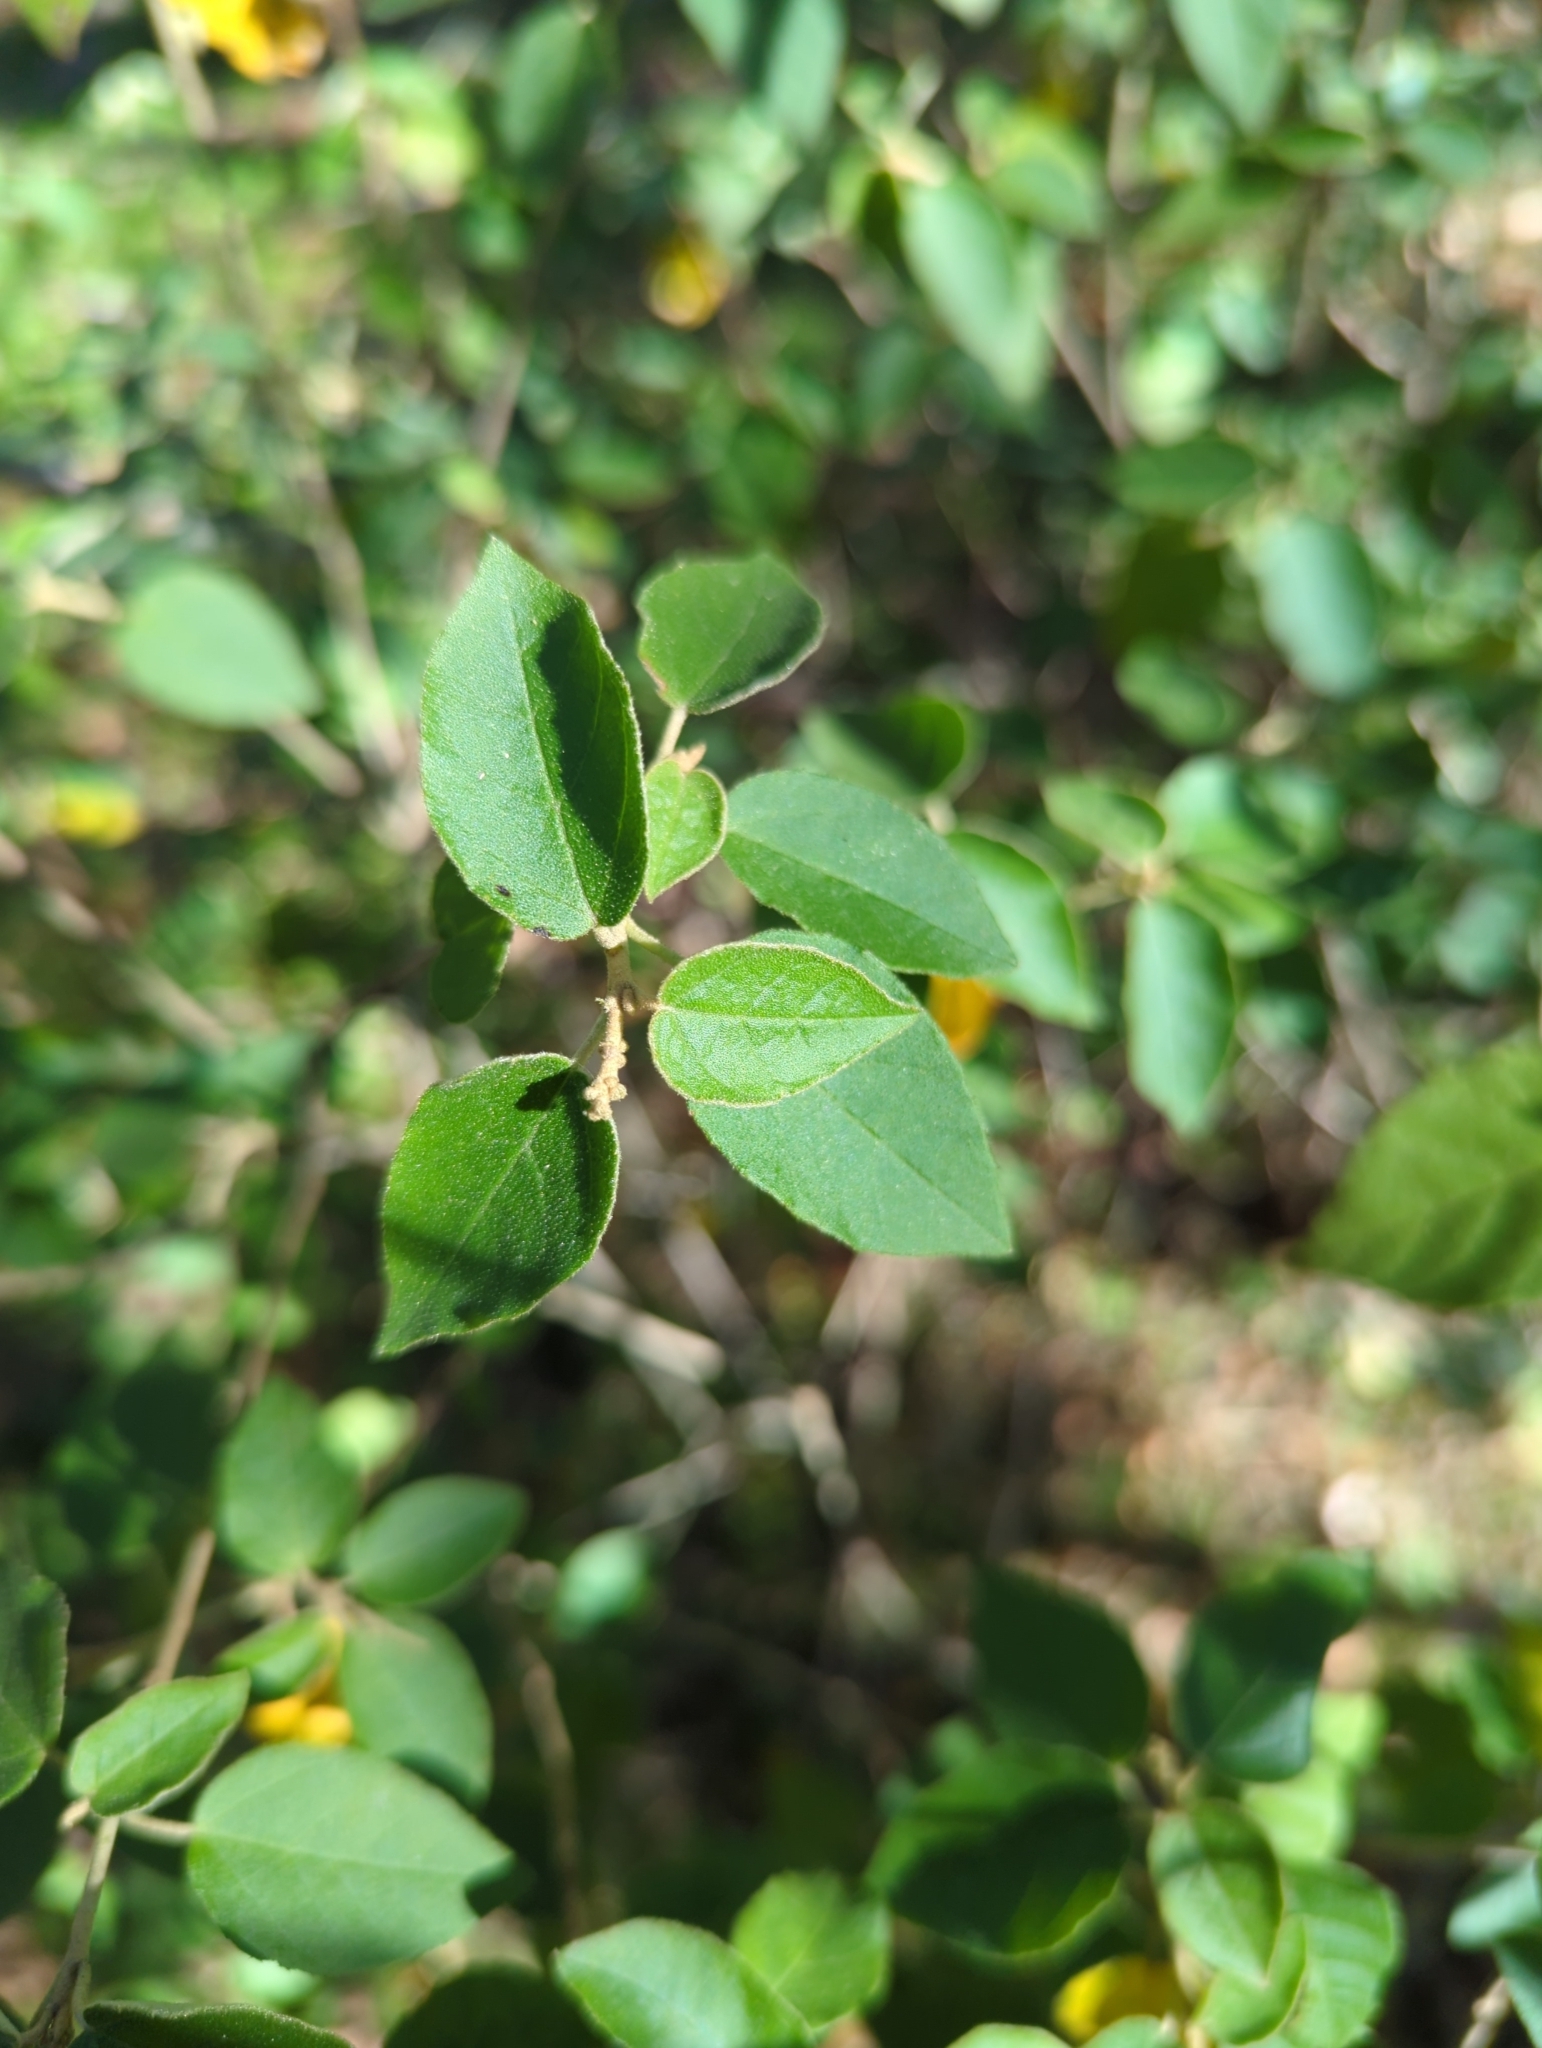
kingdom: Plantae
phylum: Tracheophyta
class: Magnoliopsida
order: Malpighiales
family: Euphorbiaceae
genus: Croton
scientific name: Croton fruticulosus
